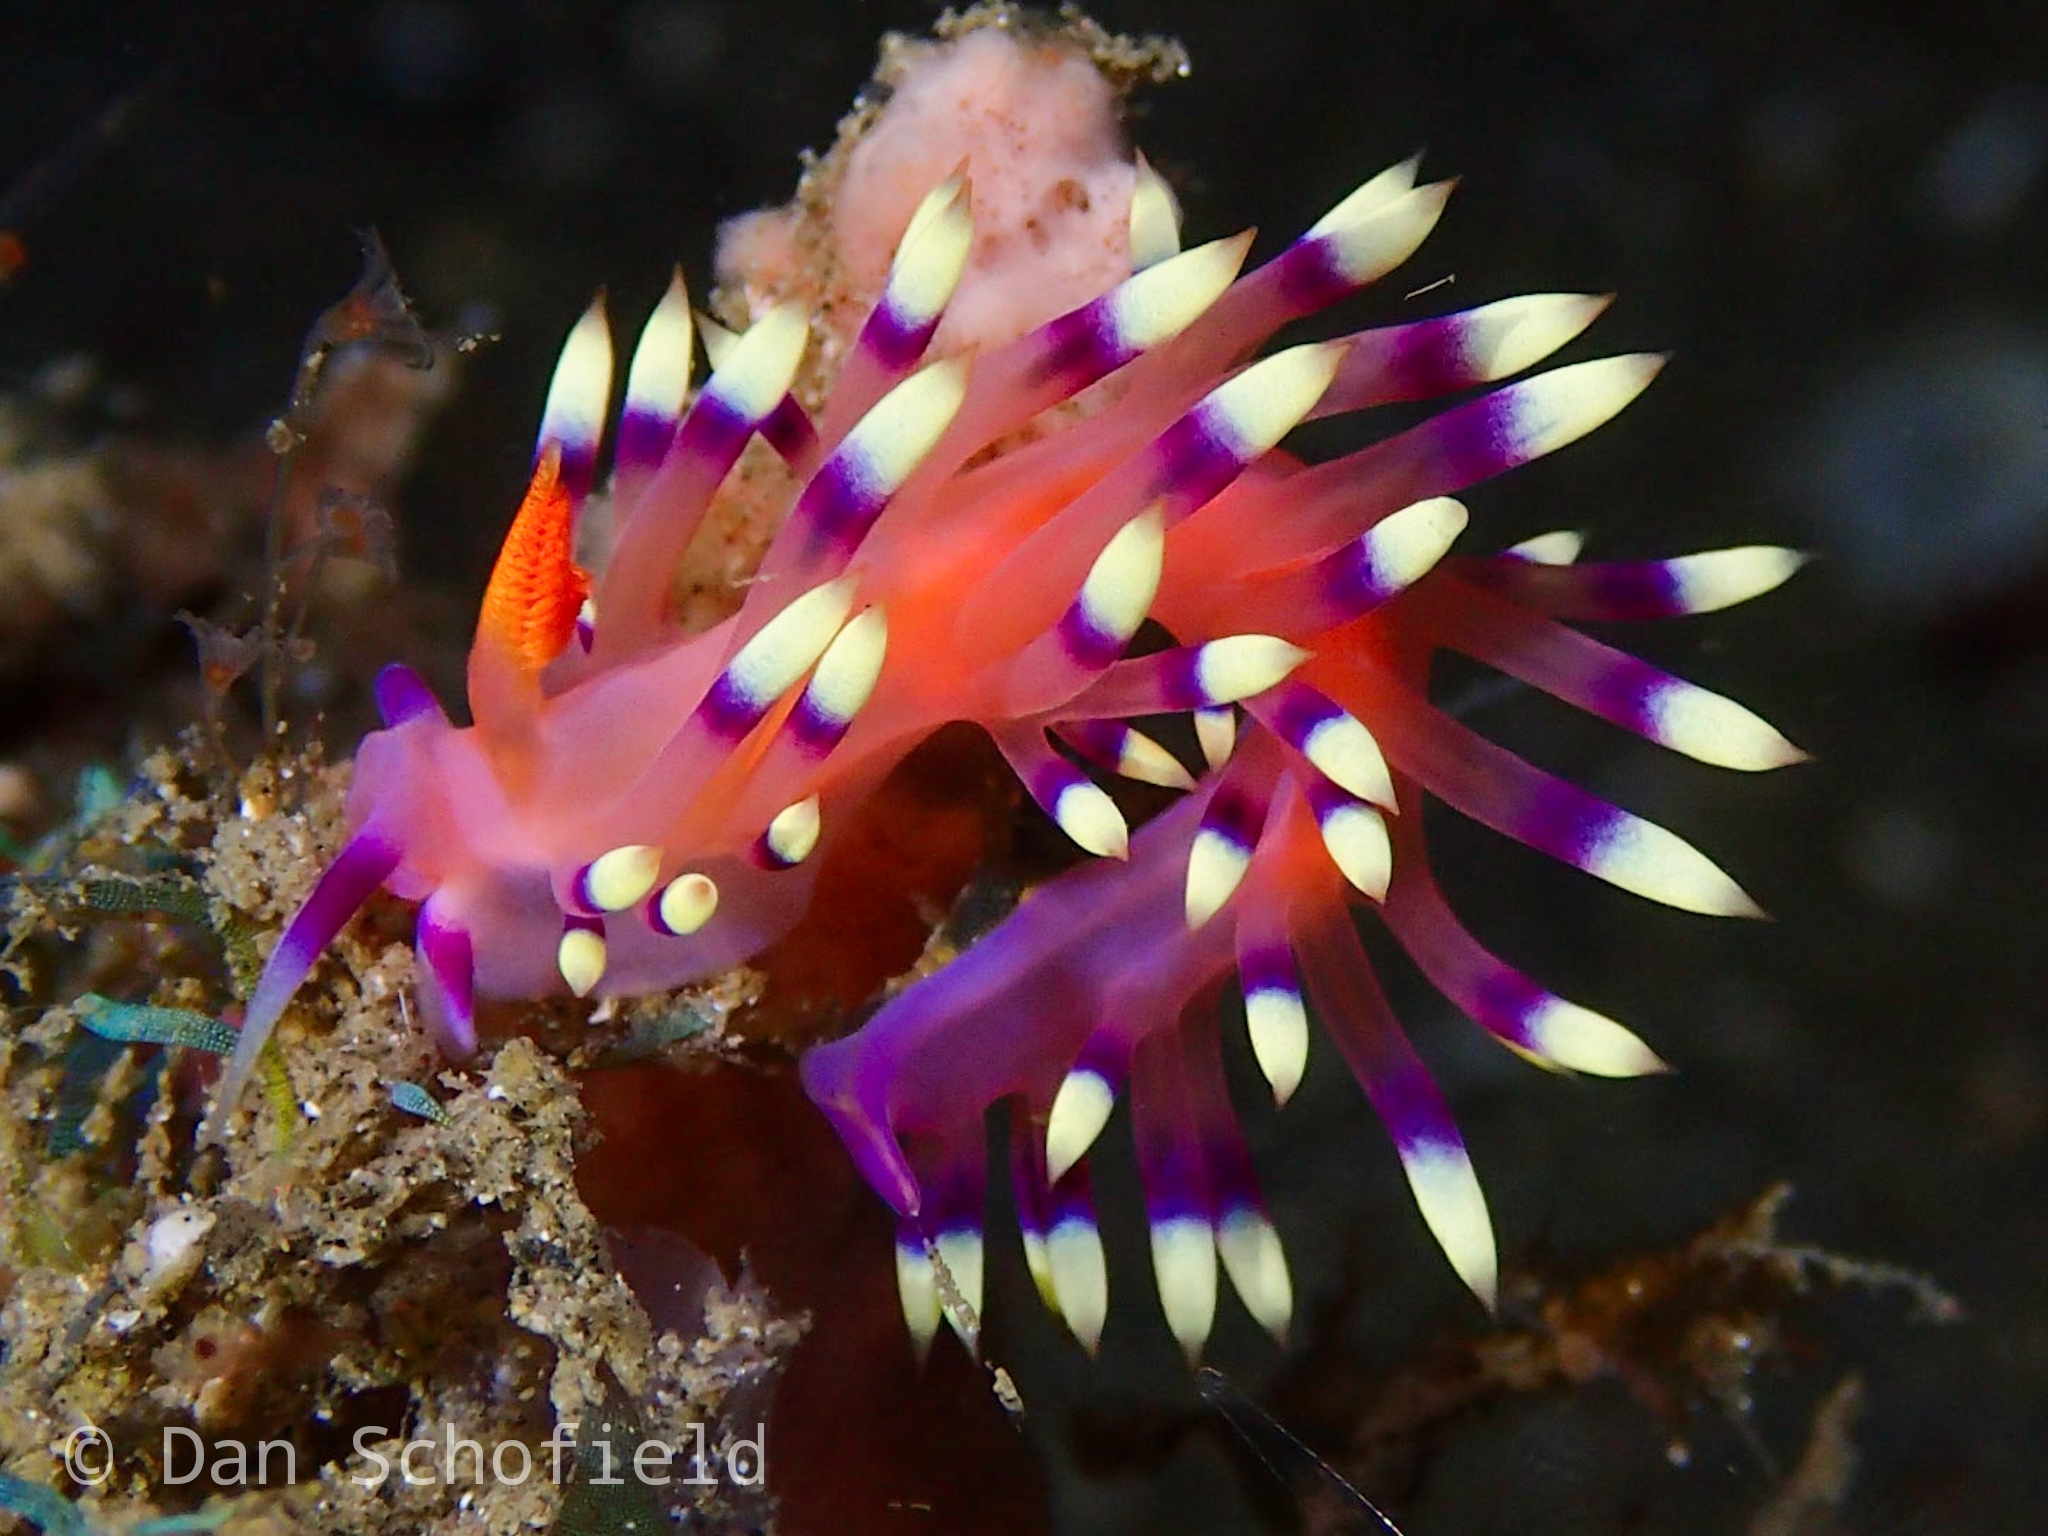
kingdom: Animalia
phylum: Mollusca
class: Gastropoda
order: Nudibranchia
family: Flabellinidae
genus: Coryphellina
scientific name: Coryphellina exoptata
